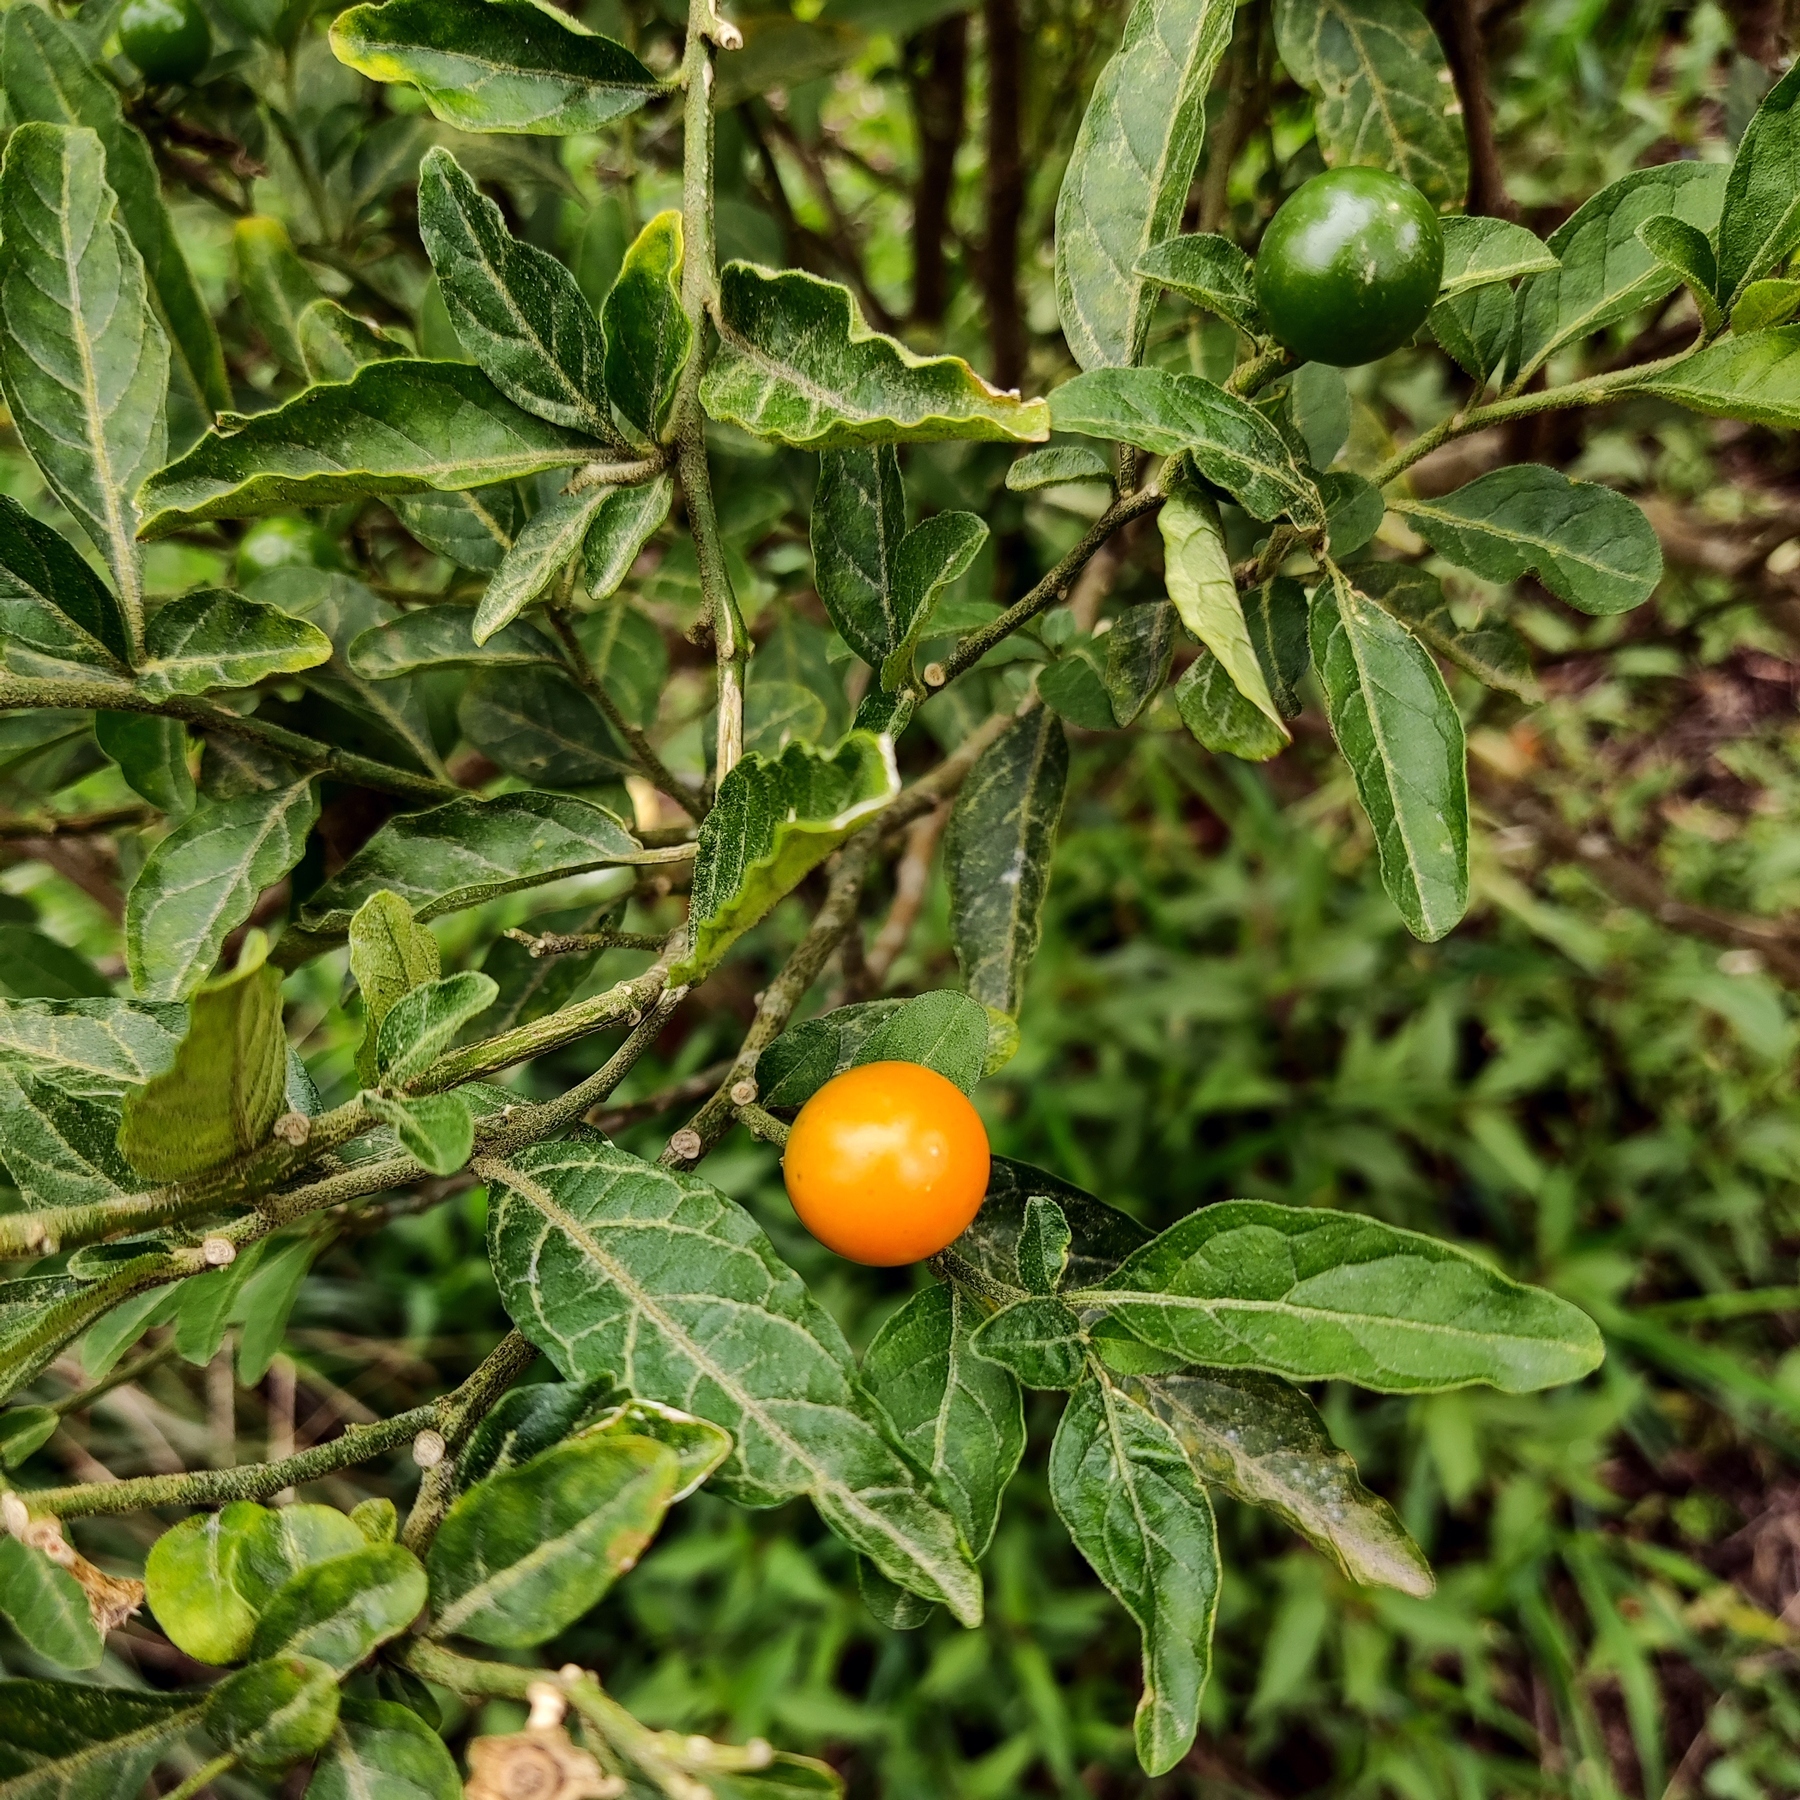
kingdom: Plantae
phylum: Tracheophyta
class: Magnoliopsida
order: Solanales
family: Solanaceae
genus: Solanum
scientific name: Solanum pseudocapsicum
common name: Jerusalem cherry
